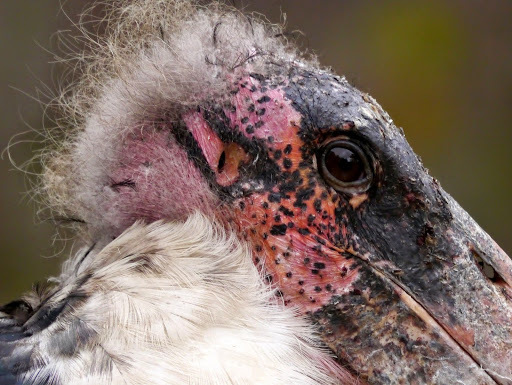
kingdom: Animalia
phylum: Chordata
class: Aves
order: Ciconiiformes
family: Ciconiidae
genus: Leptoptilos
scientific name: Leptoptilos crumenifer
